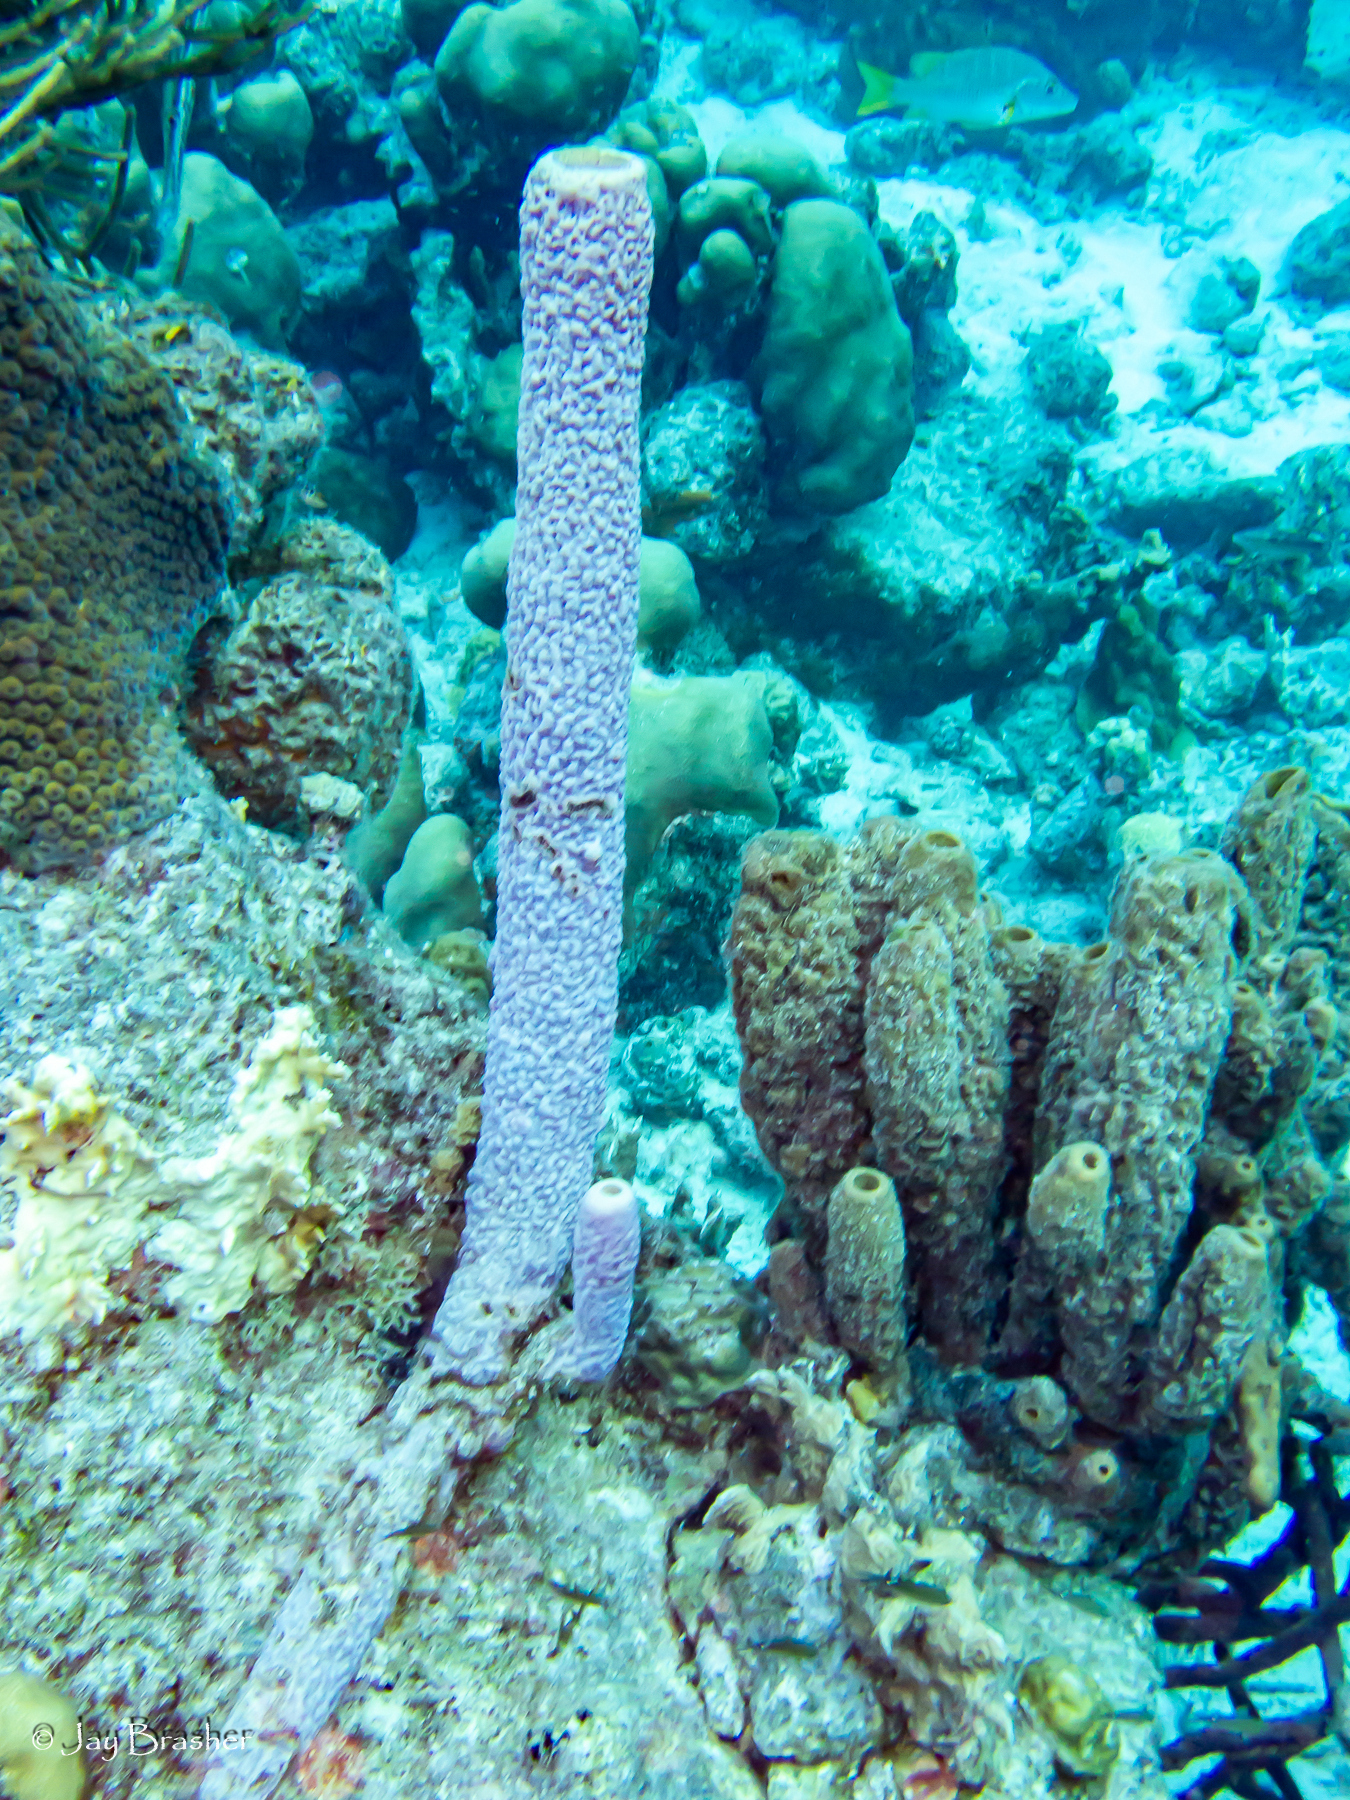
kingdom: Animalia
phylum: Porifera
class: Demospongiae
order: Verongiida
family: Aplysinidae
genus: Aplysina
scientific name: Aplysina archeri
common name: Stove-pipe sponge
